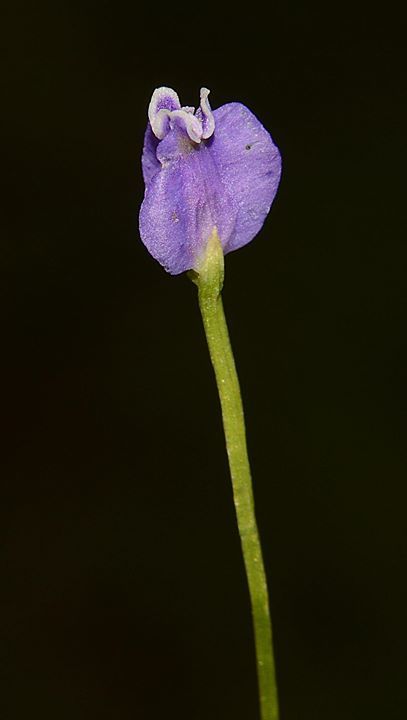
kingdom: Plantae
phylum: Tracheophyta
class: Liliopsida
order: Dioscoreales
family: Burmanniaceae
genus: Burmannia
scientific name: Burmannia pusilla
